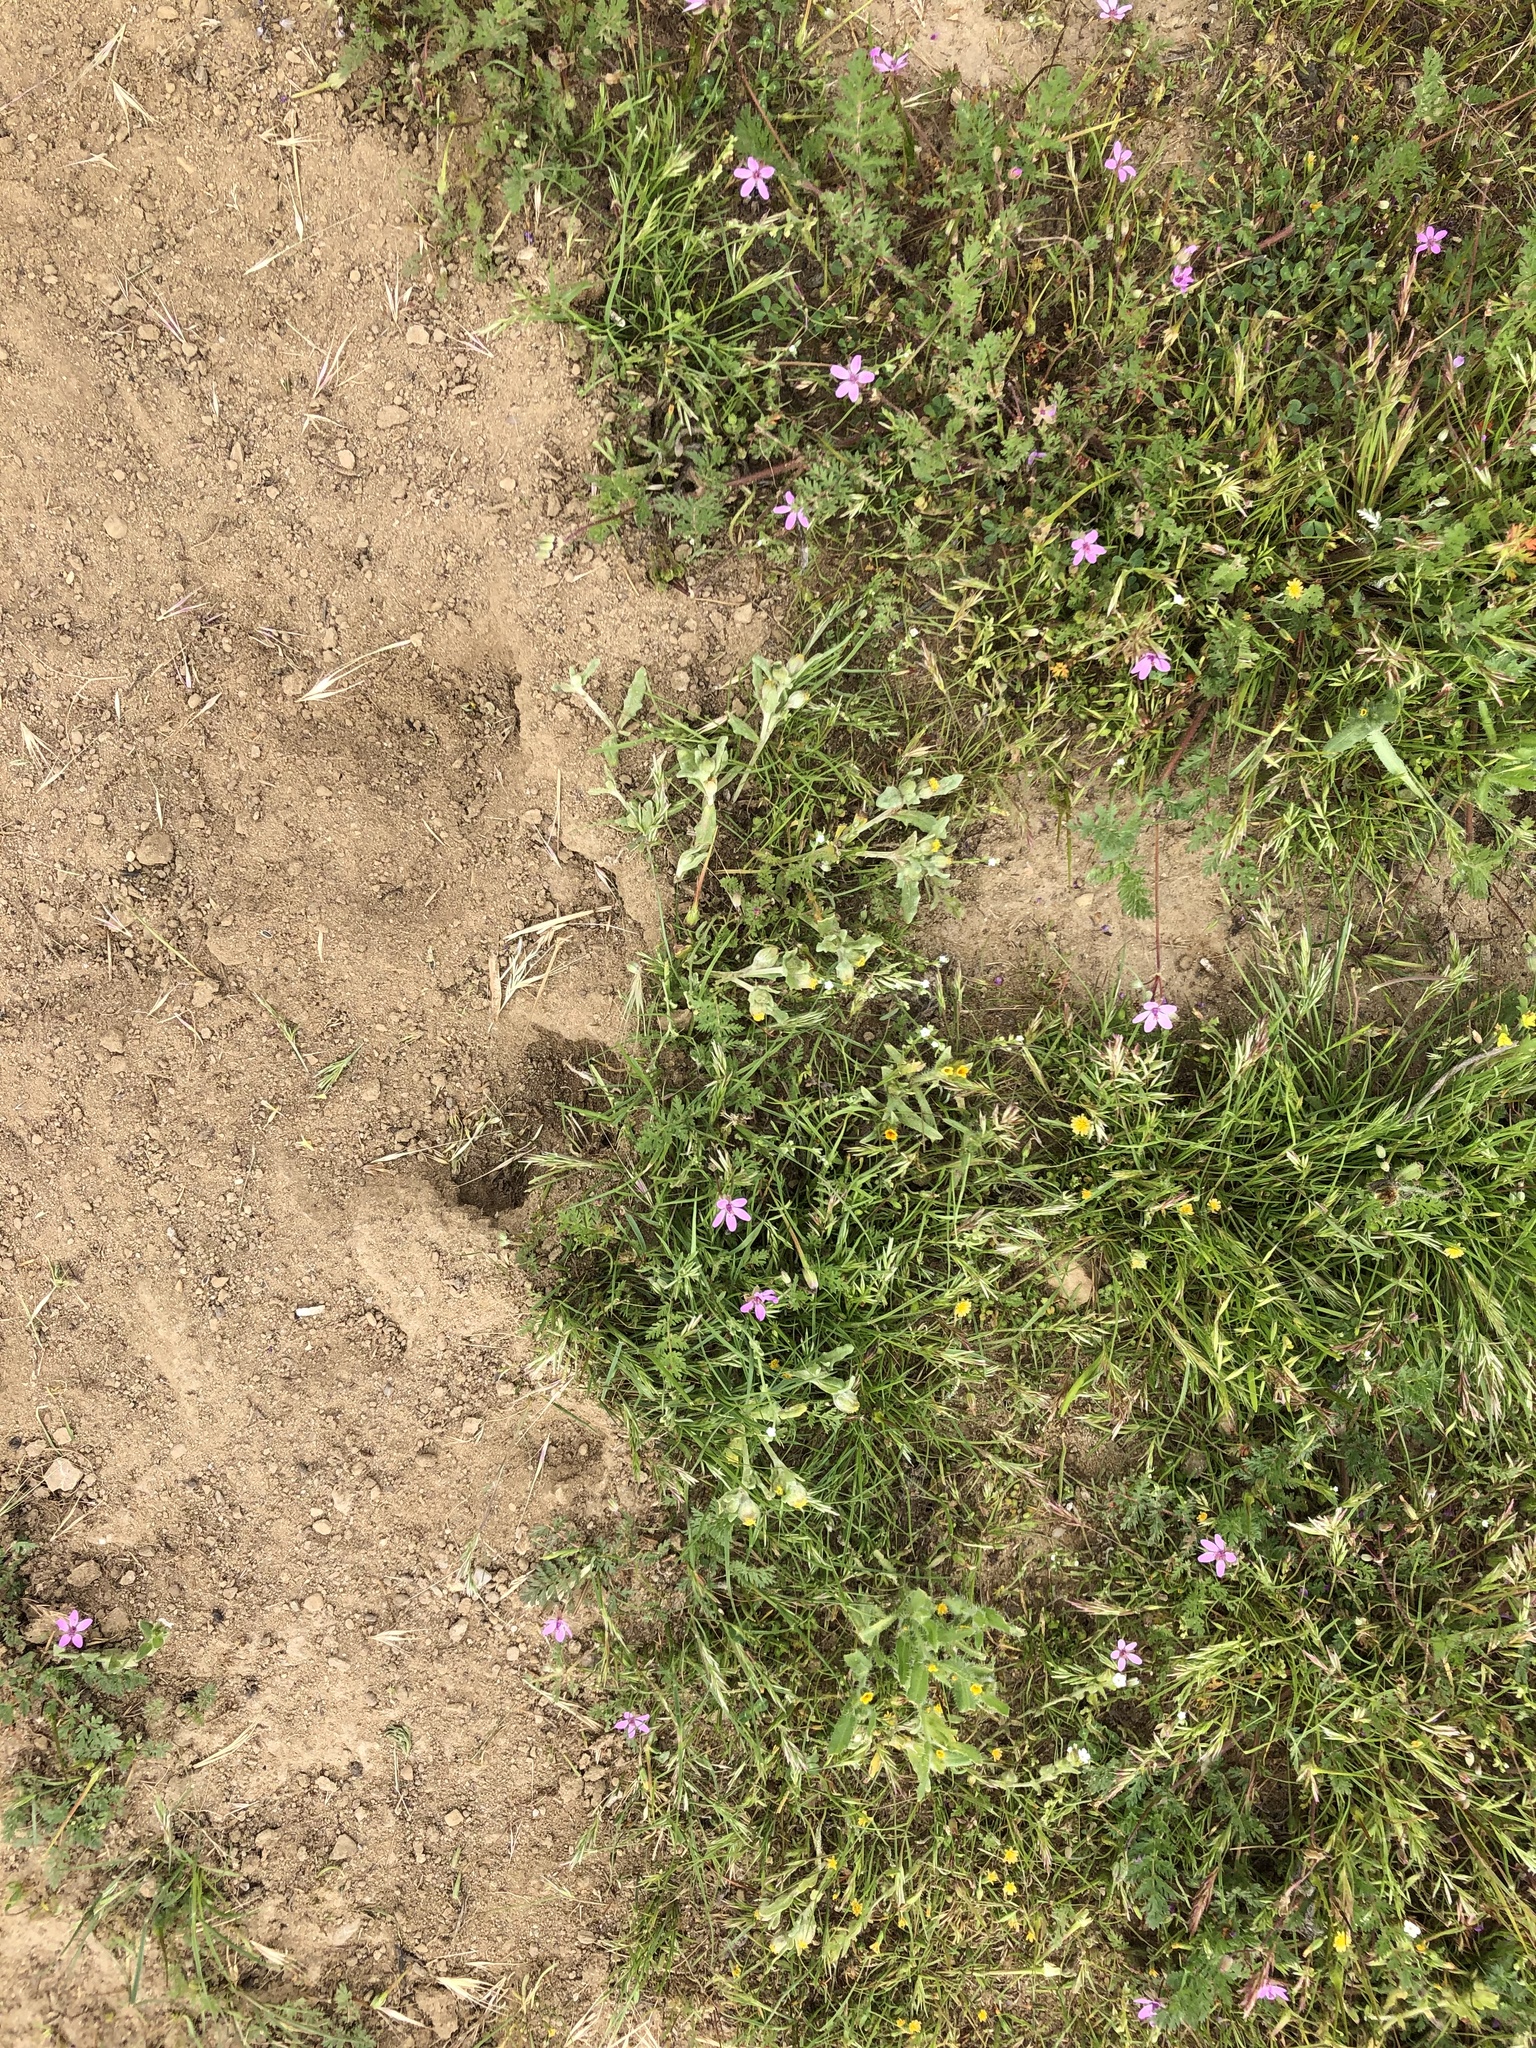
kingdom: Plantae
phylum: Tracheophyta
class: Magnoliopsida
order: Asterales
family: Asteraceae
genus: Monolopia
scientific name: Monolopia congdonii
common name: San joaquin woolly-threads
